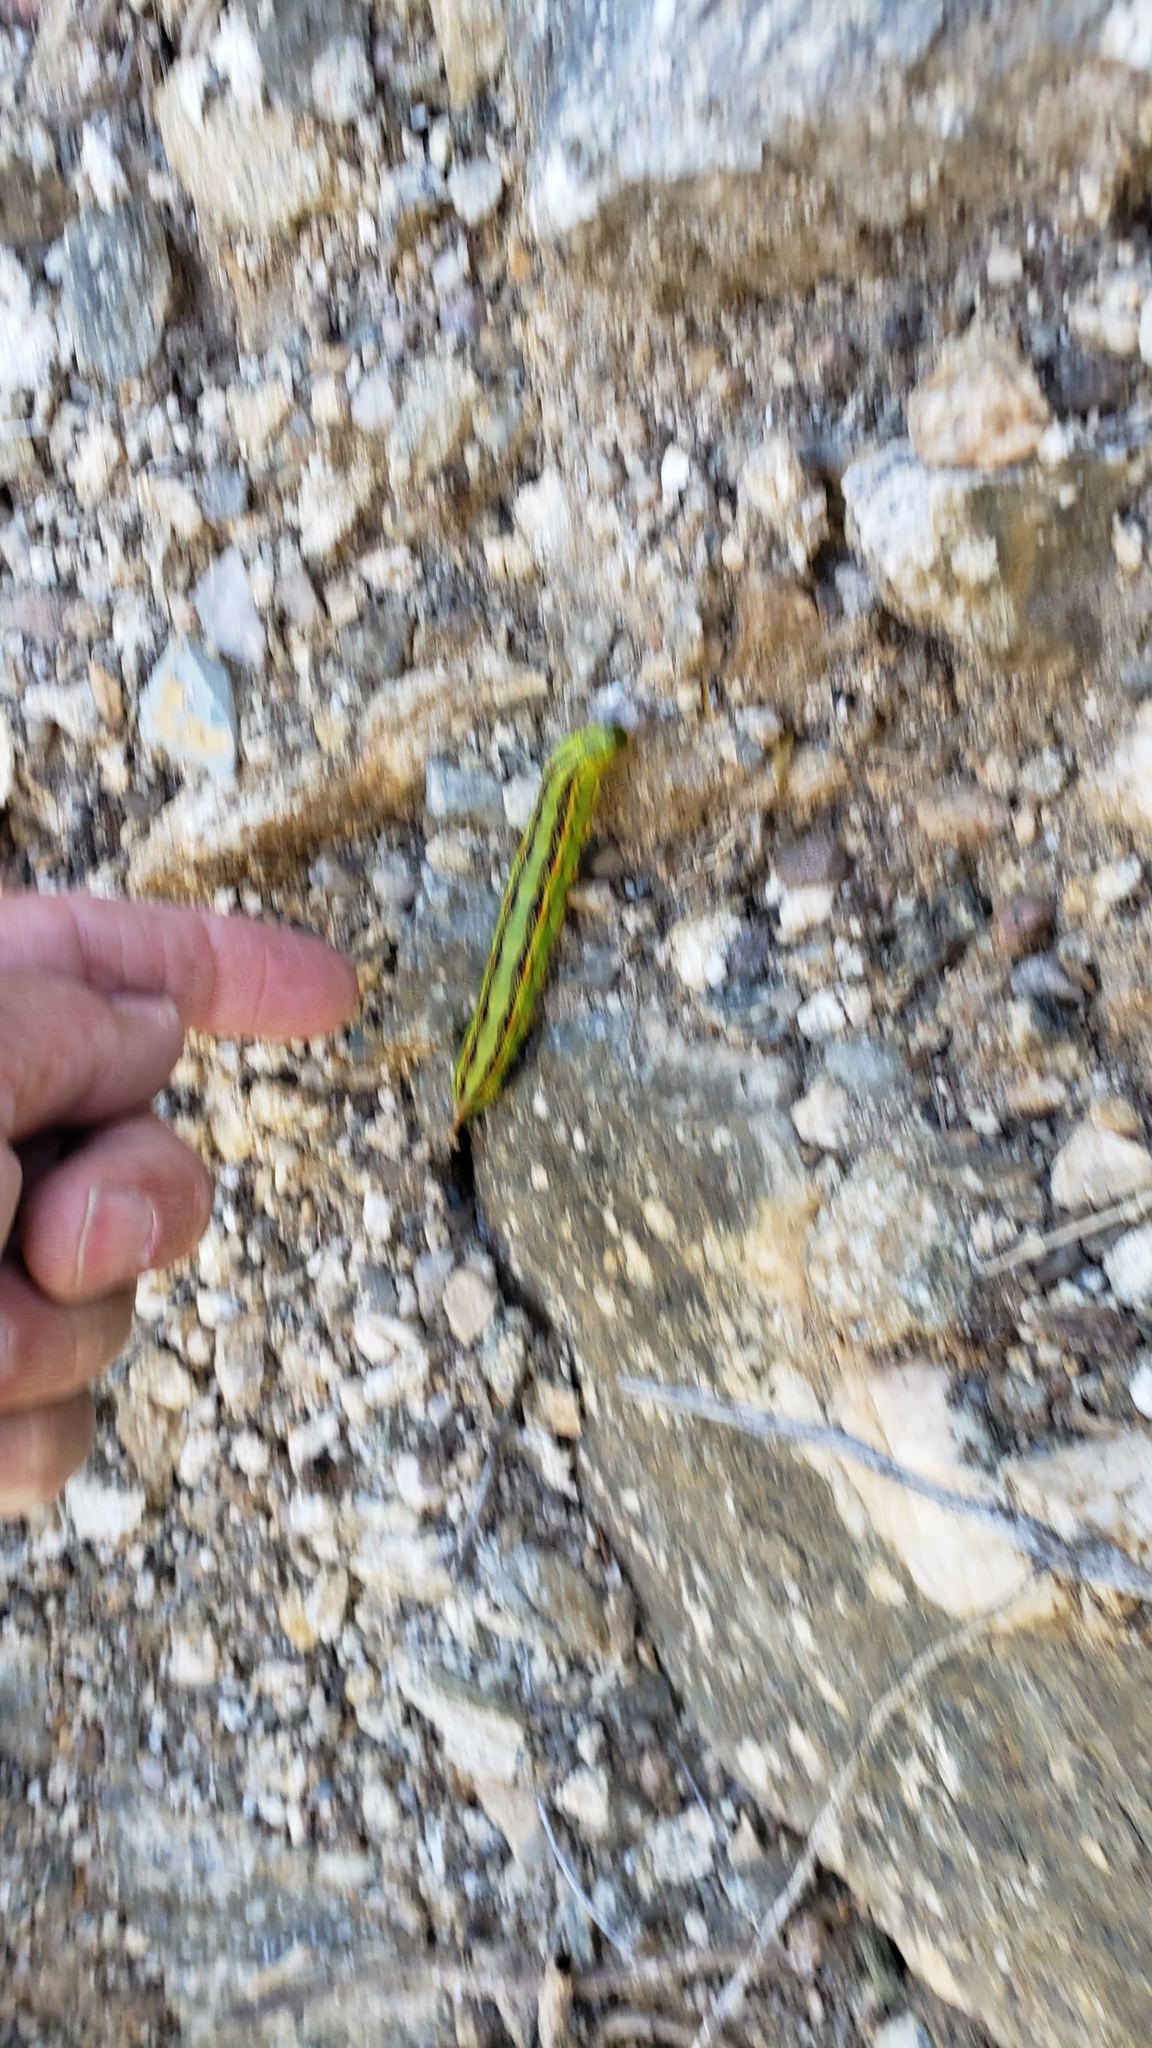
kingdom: Animalia
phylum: Arthropoda
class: Insecta
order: Lepidoptera
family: Sphingidae
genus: Hyles
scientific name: Hyles lineata
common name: White-lined sphinx
